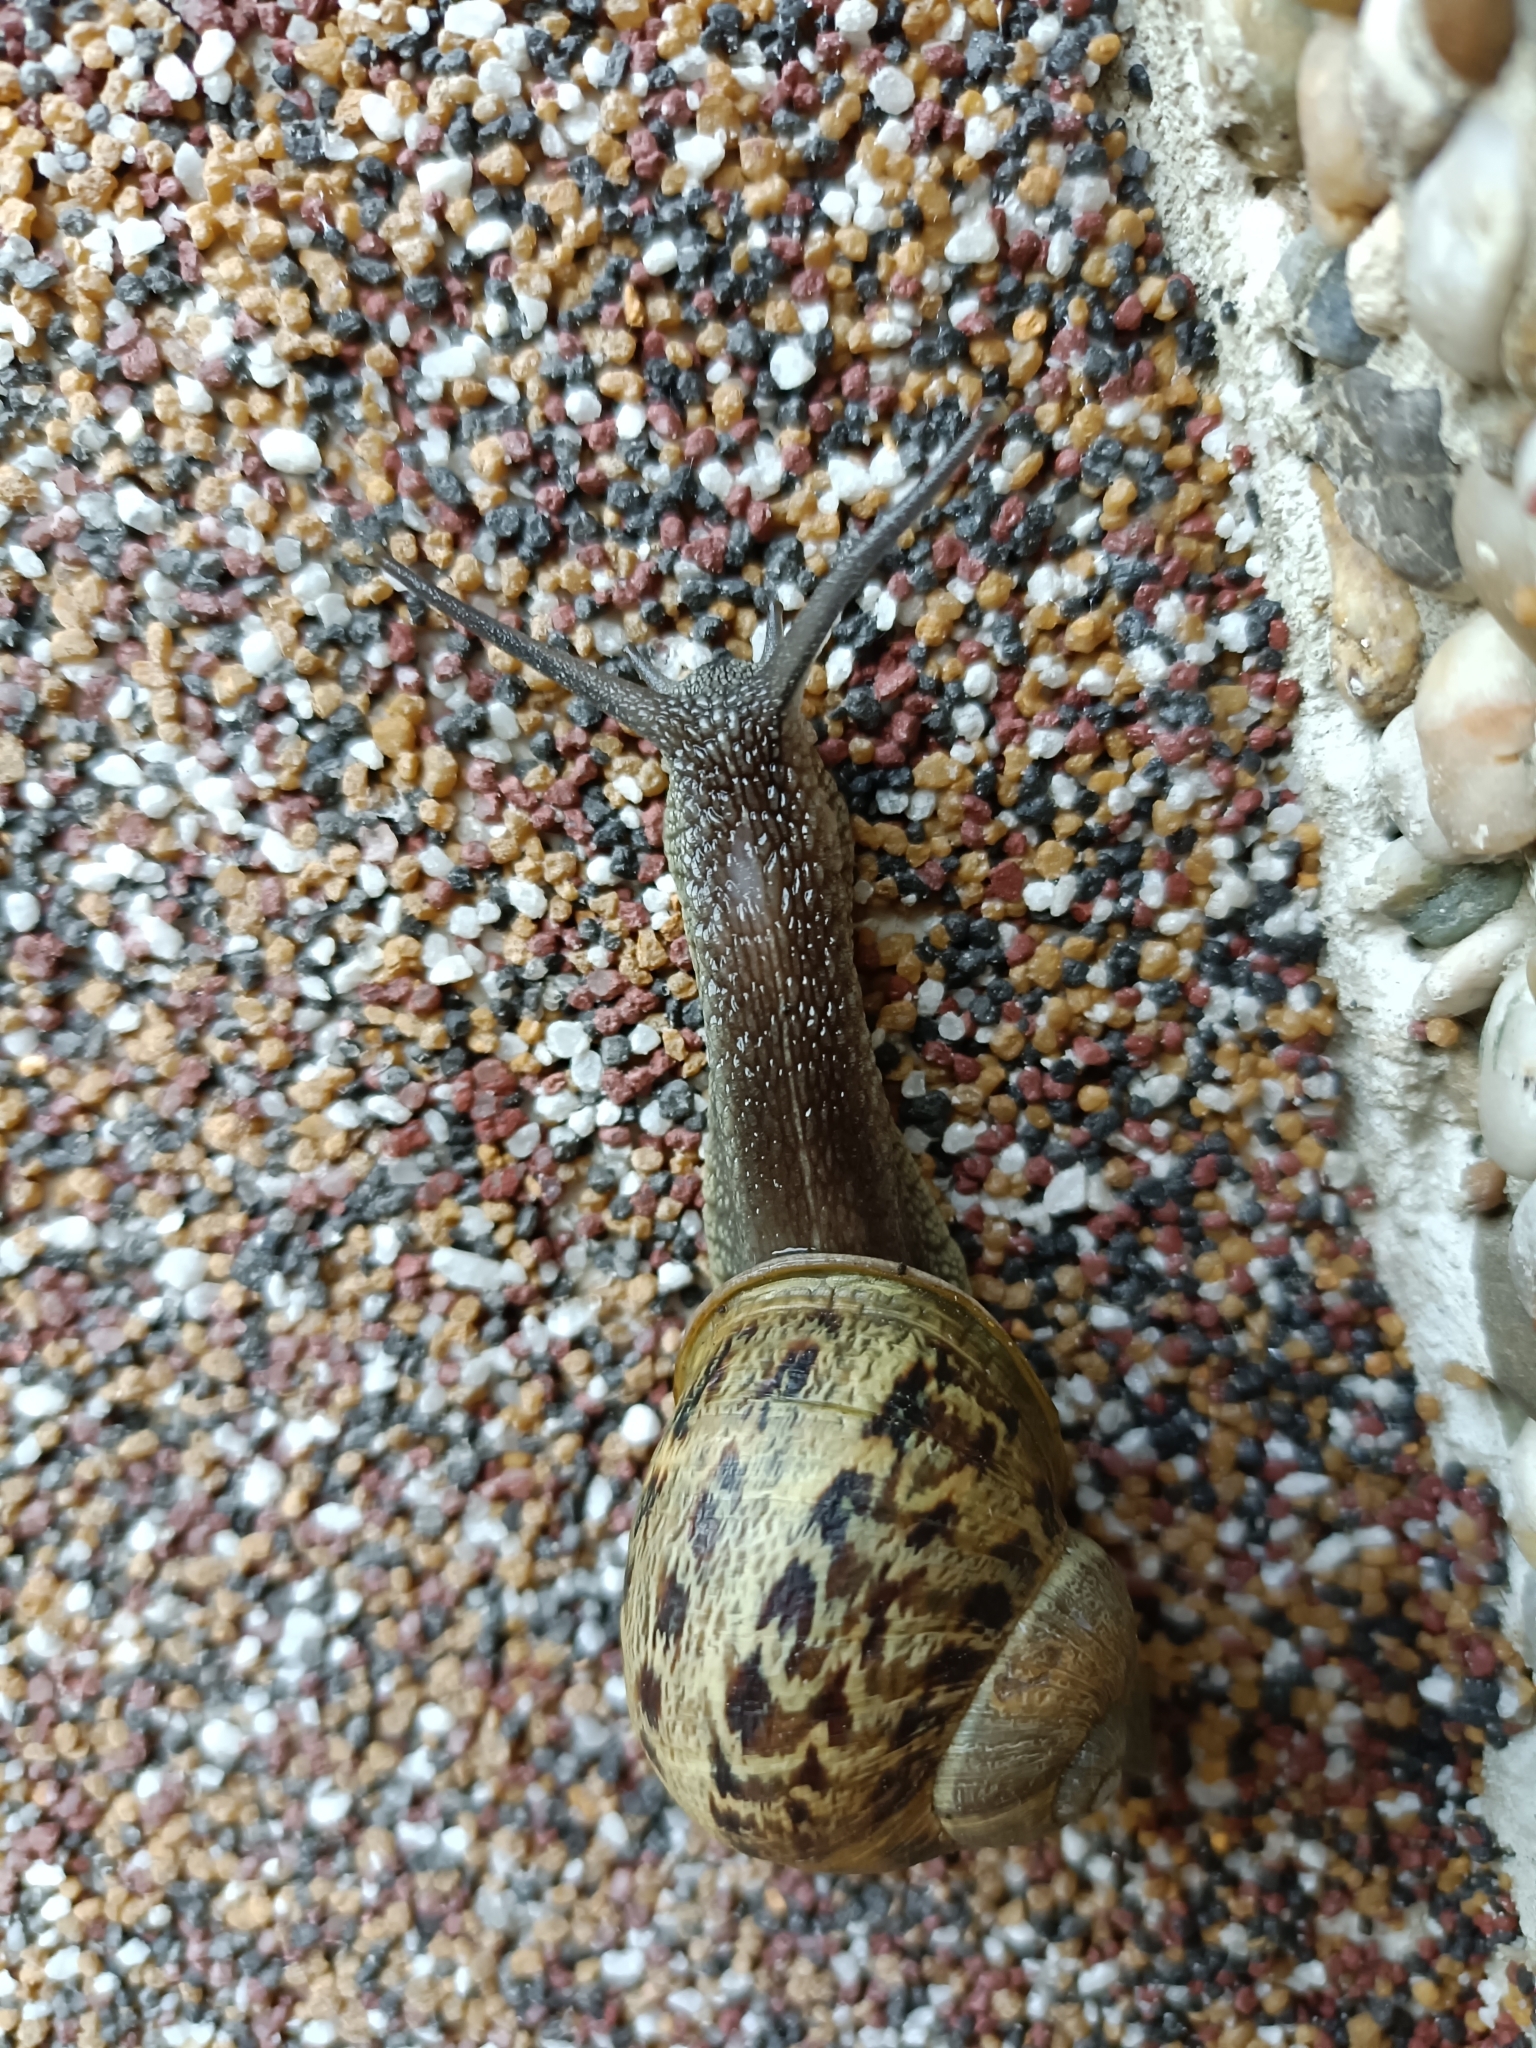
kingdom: Animalia
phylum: Mollusca
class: Gastropoda
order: Stylommatophora
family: Helicidae
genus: Cornu
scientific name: Cornu aspersum
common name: Brown garden snail
